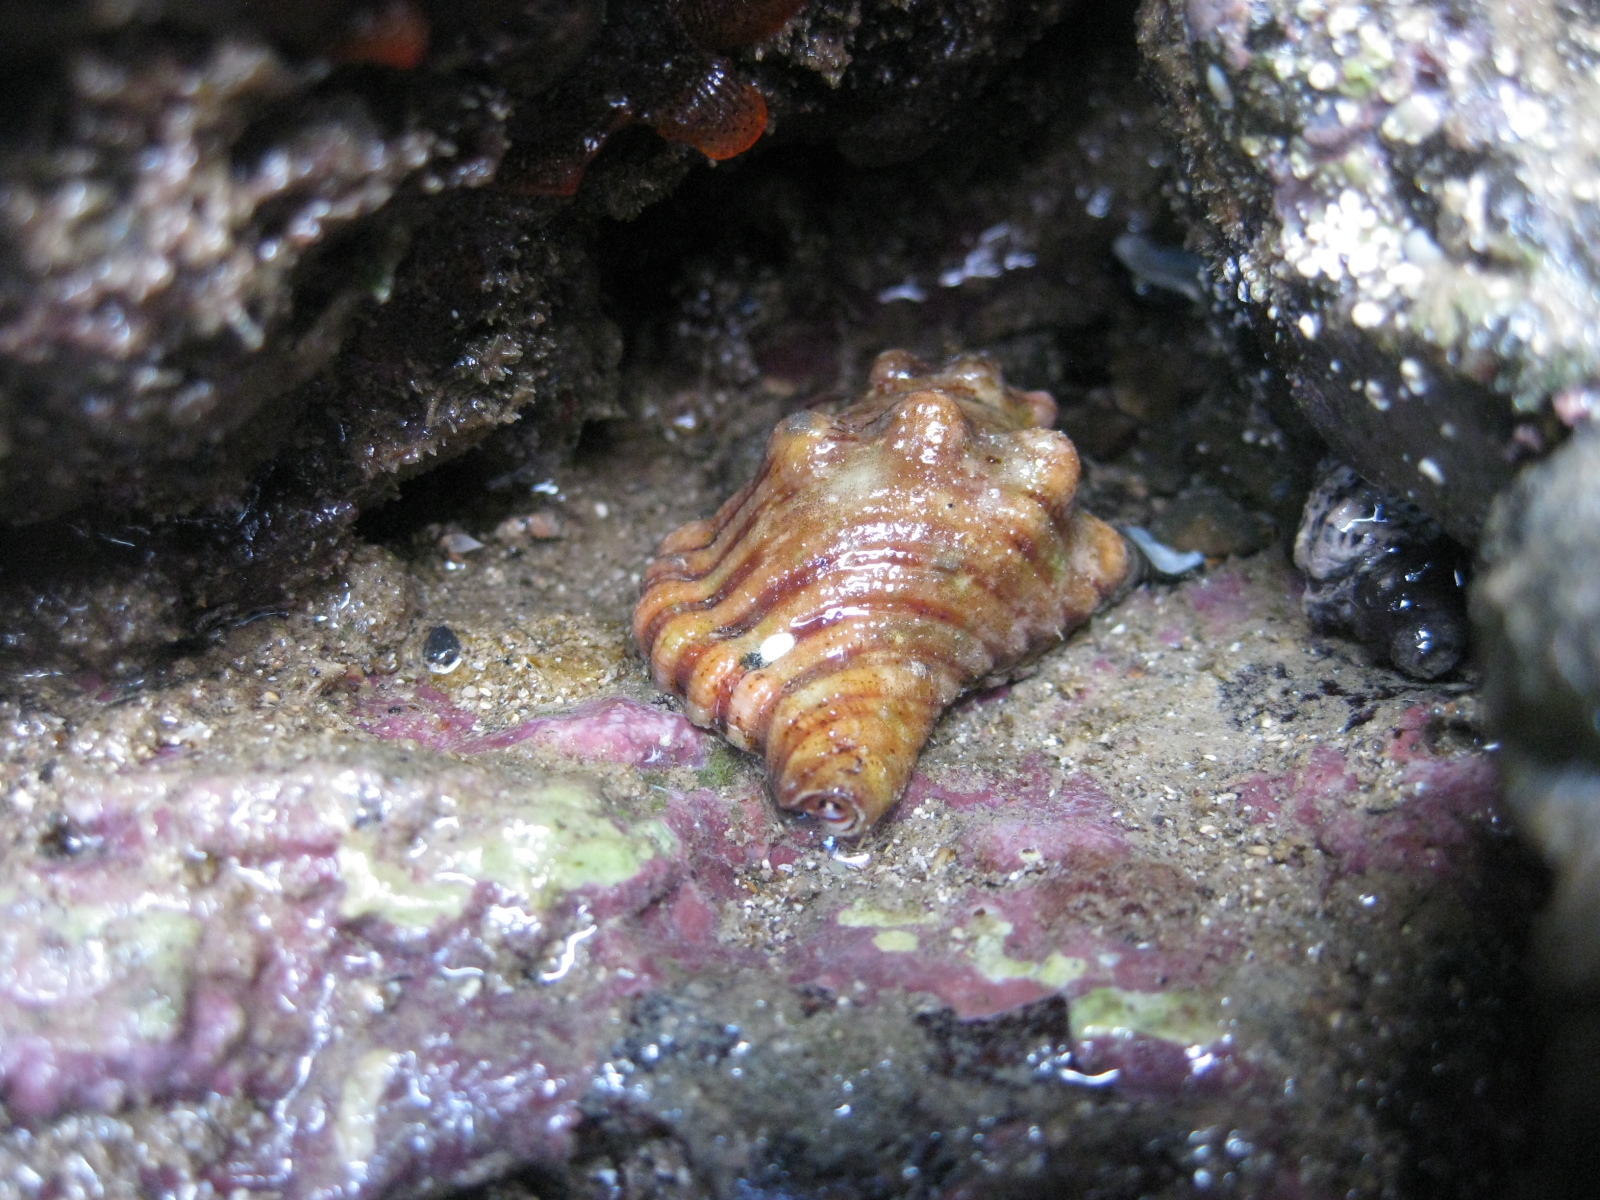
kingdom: Animalia
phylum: Mollusca
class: Gastropoda
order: Littorinimorpha
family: Cymatiidae
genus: Cabestana
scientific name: Cabestana spengleri
